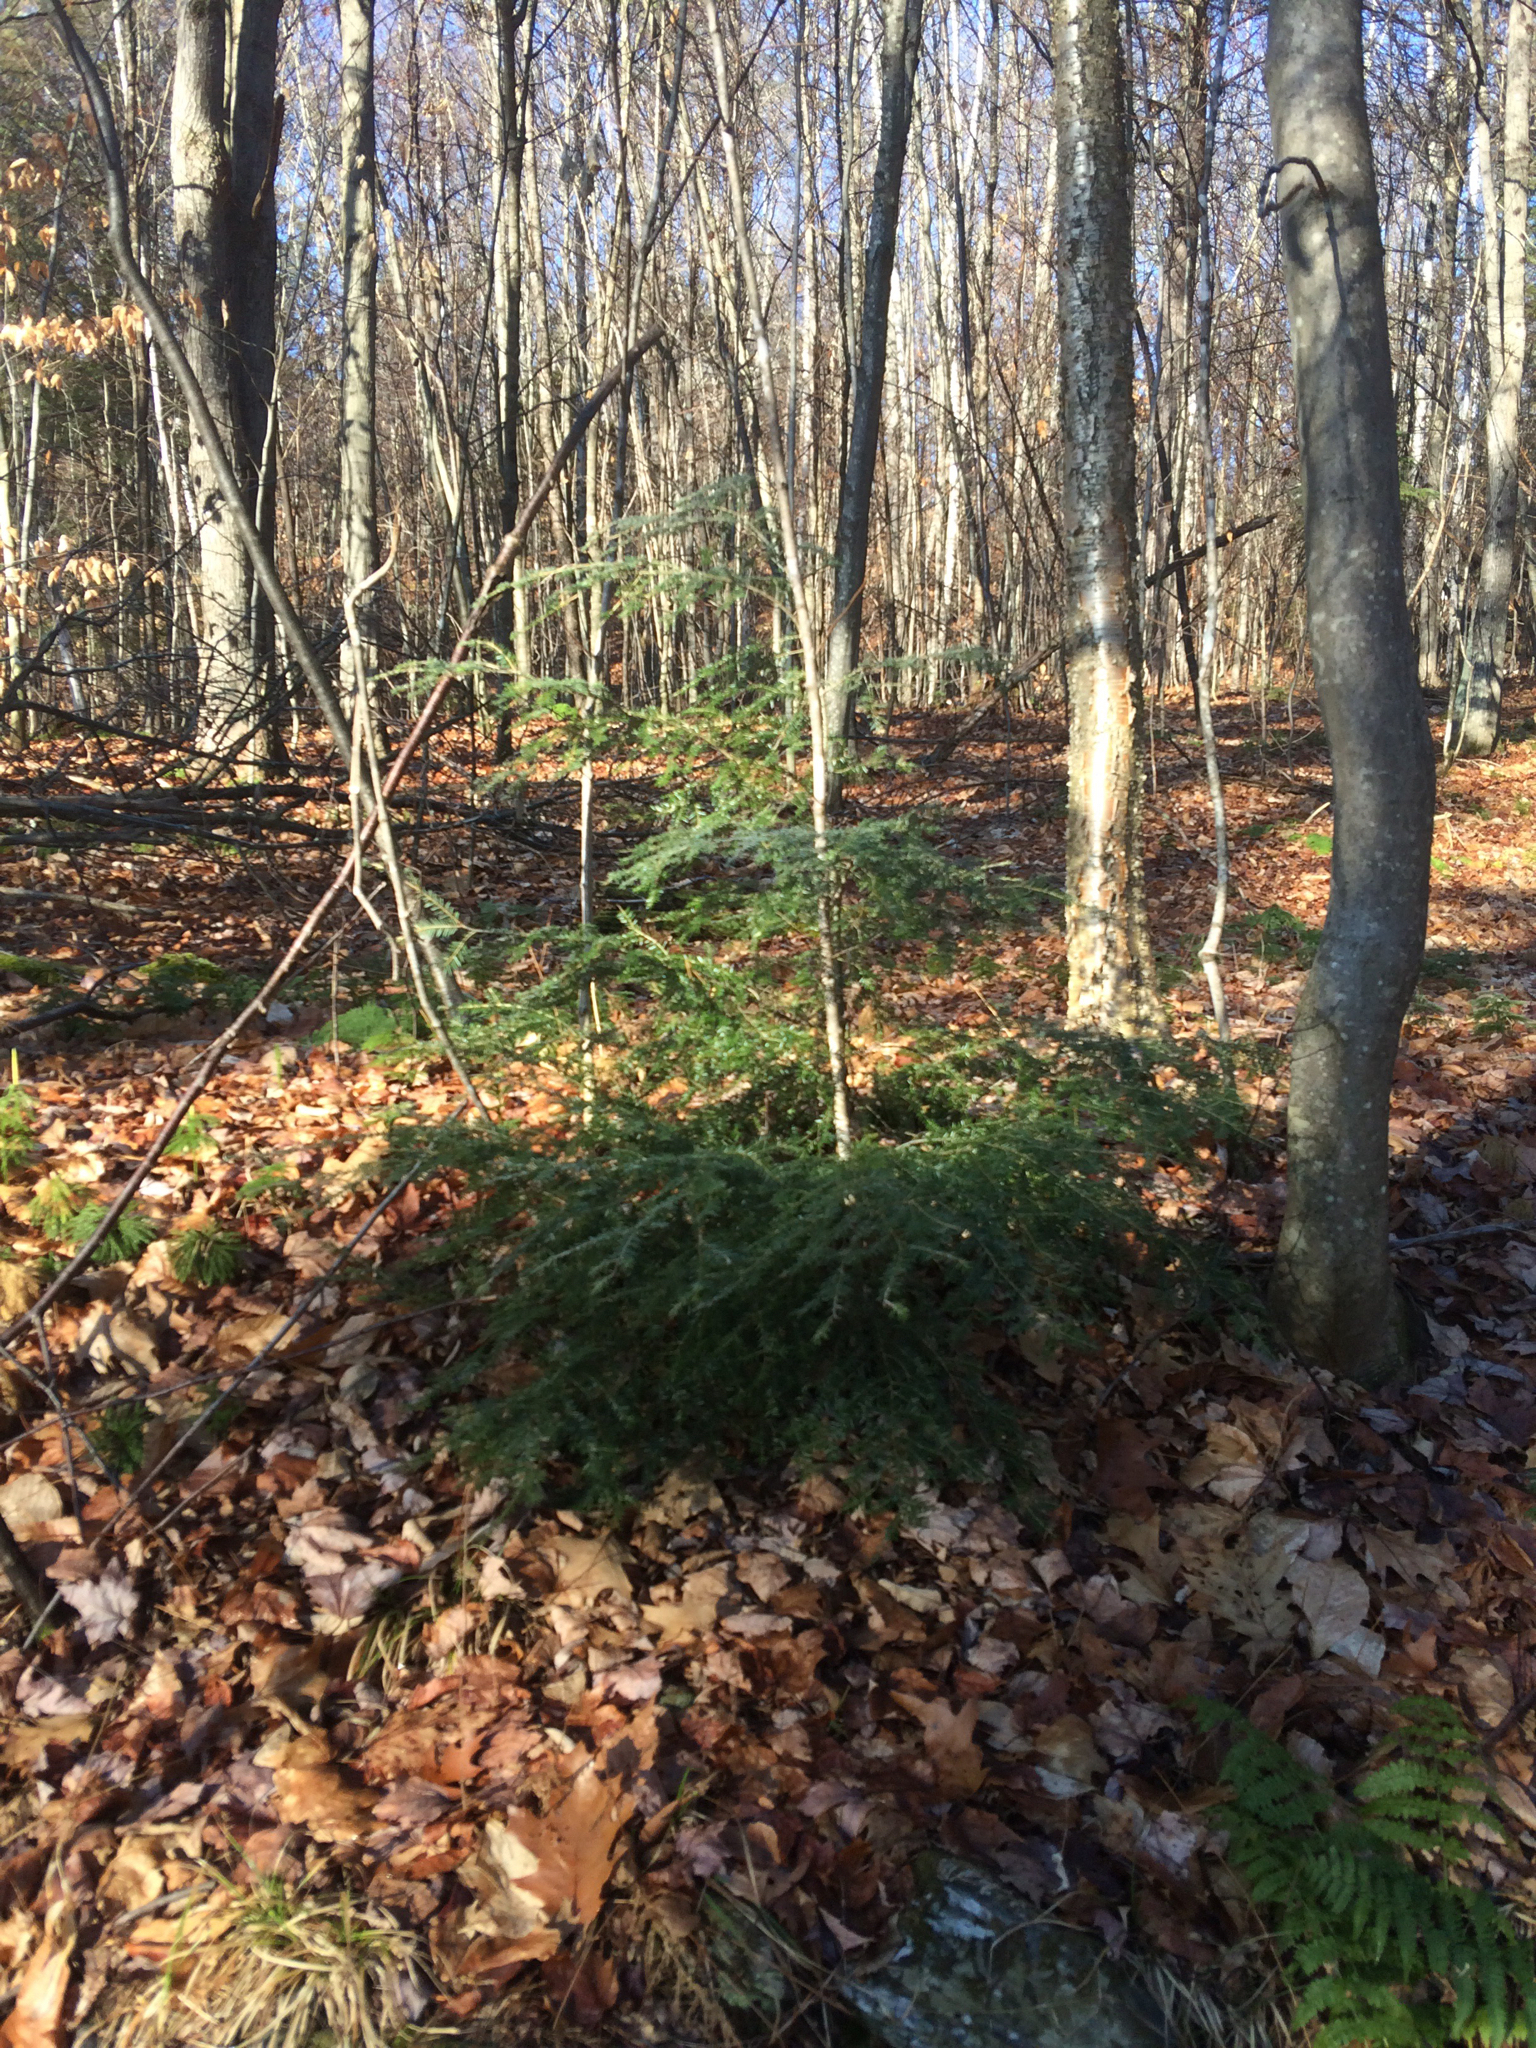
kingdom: Plantae
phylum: Tracheophyta
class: Pinopsida
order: Pinales
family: Pinaceae
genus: Tsuga
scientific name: Tsuga canadensis
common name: Eastern hemlock
